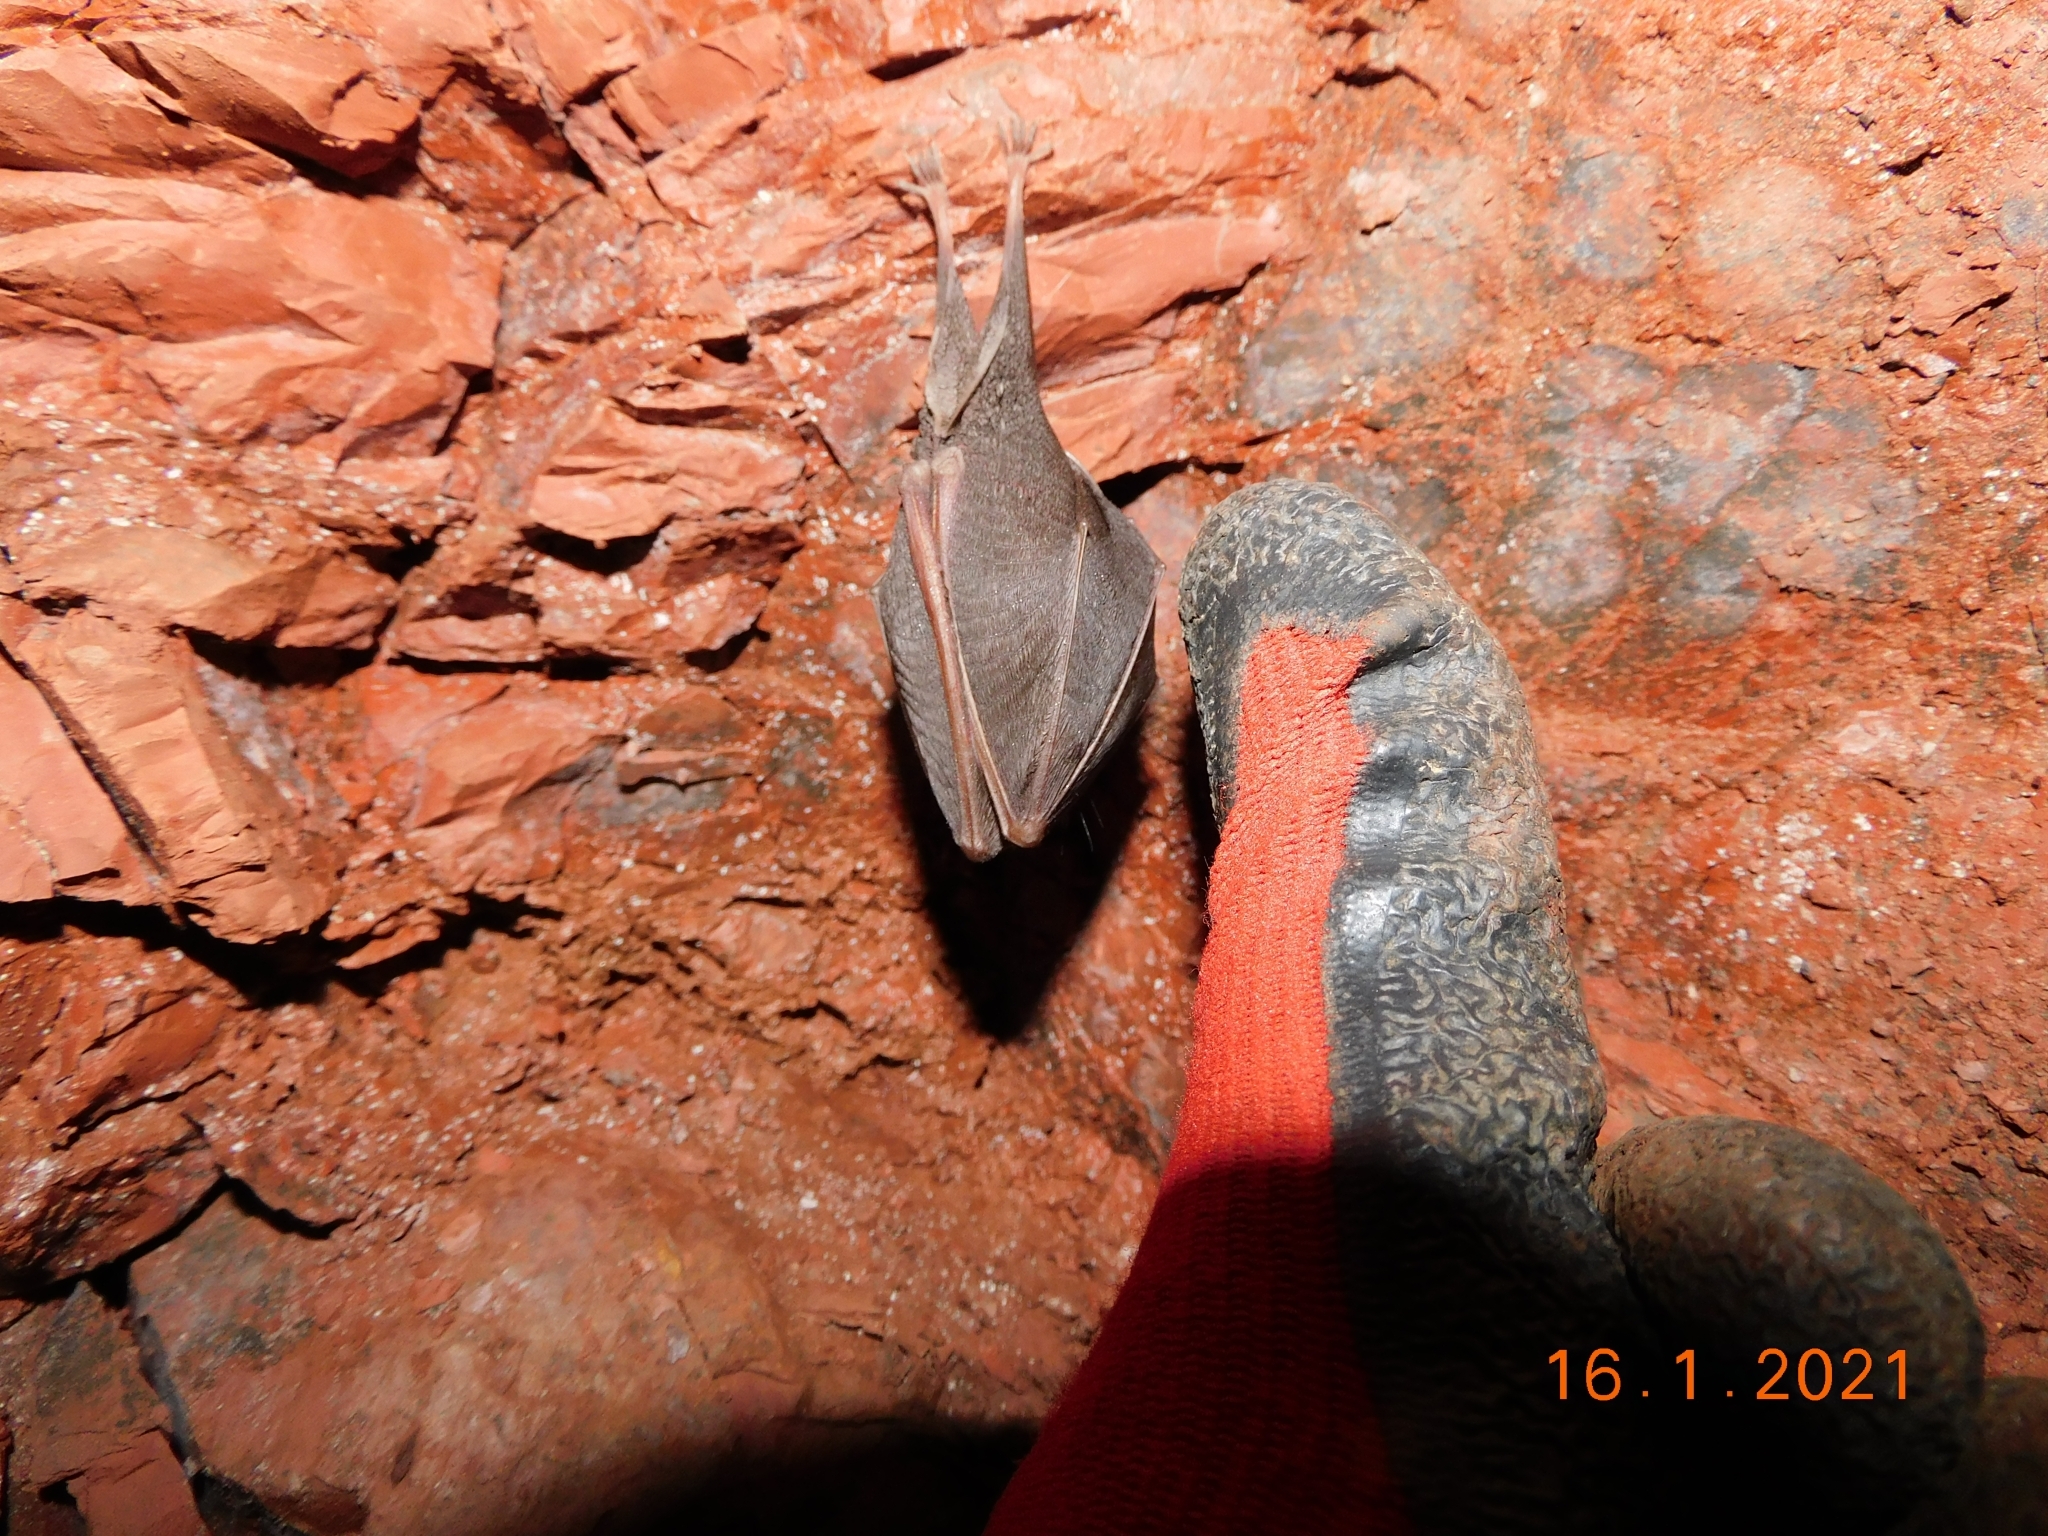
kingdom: Animalia
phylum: Chordata
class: Mammalia
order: Chiroptera
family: Rhinolophidae
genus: Rhinolophus
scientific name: Rhinolophus hipposideros
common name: Lesser horseshoe bat
